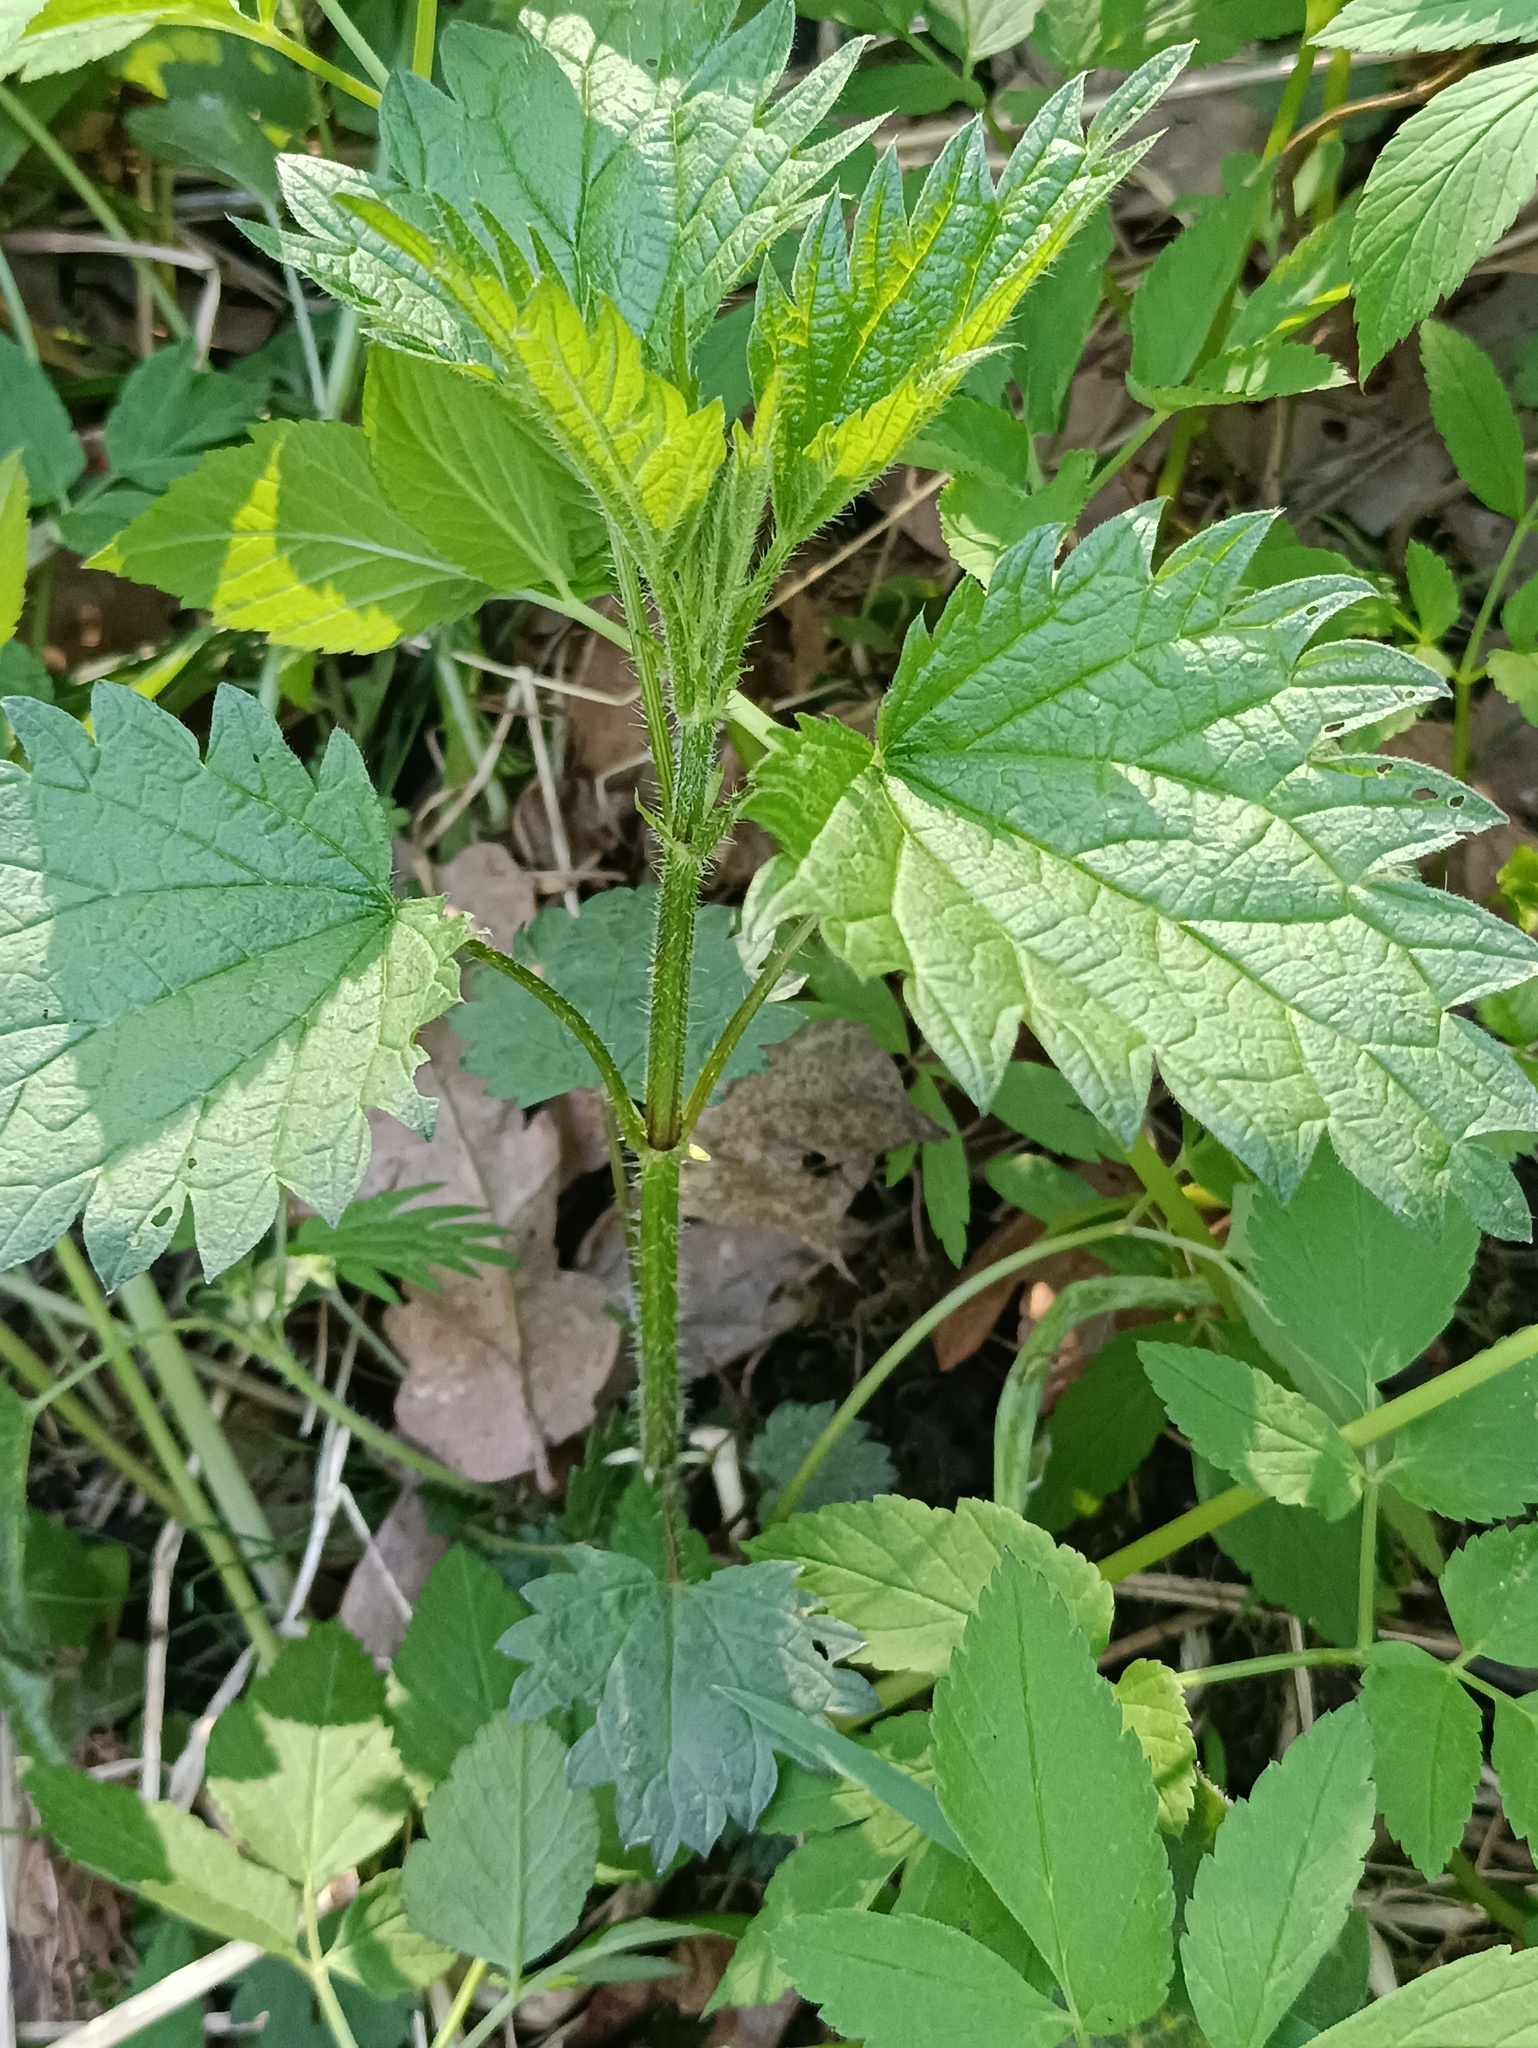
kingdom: Plantae
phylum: Tracheophyta
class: Magnoliopsida
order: Rosales
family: Urticaceae
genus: Urtica
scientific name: Urtica dioica
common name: Common nettle
